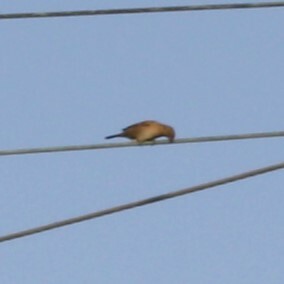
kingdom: Animalia
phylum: Chordata
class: Aves
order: Passeriformes
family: Passeridae
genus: Passer
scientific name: Passer domesticus
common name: House sparrow
